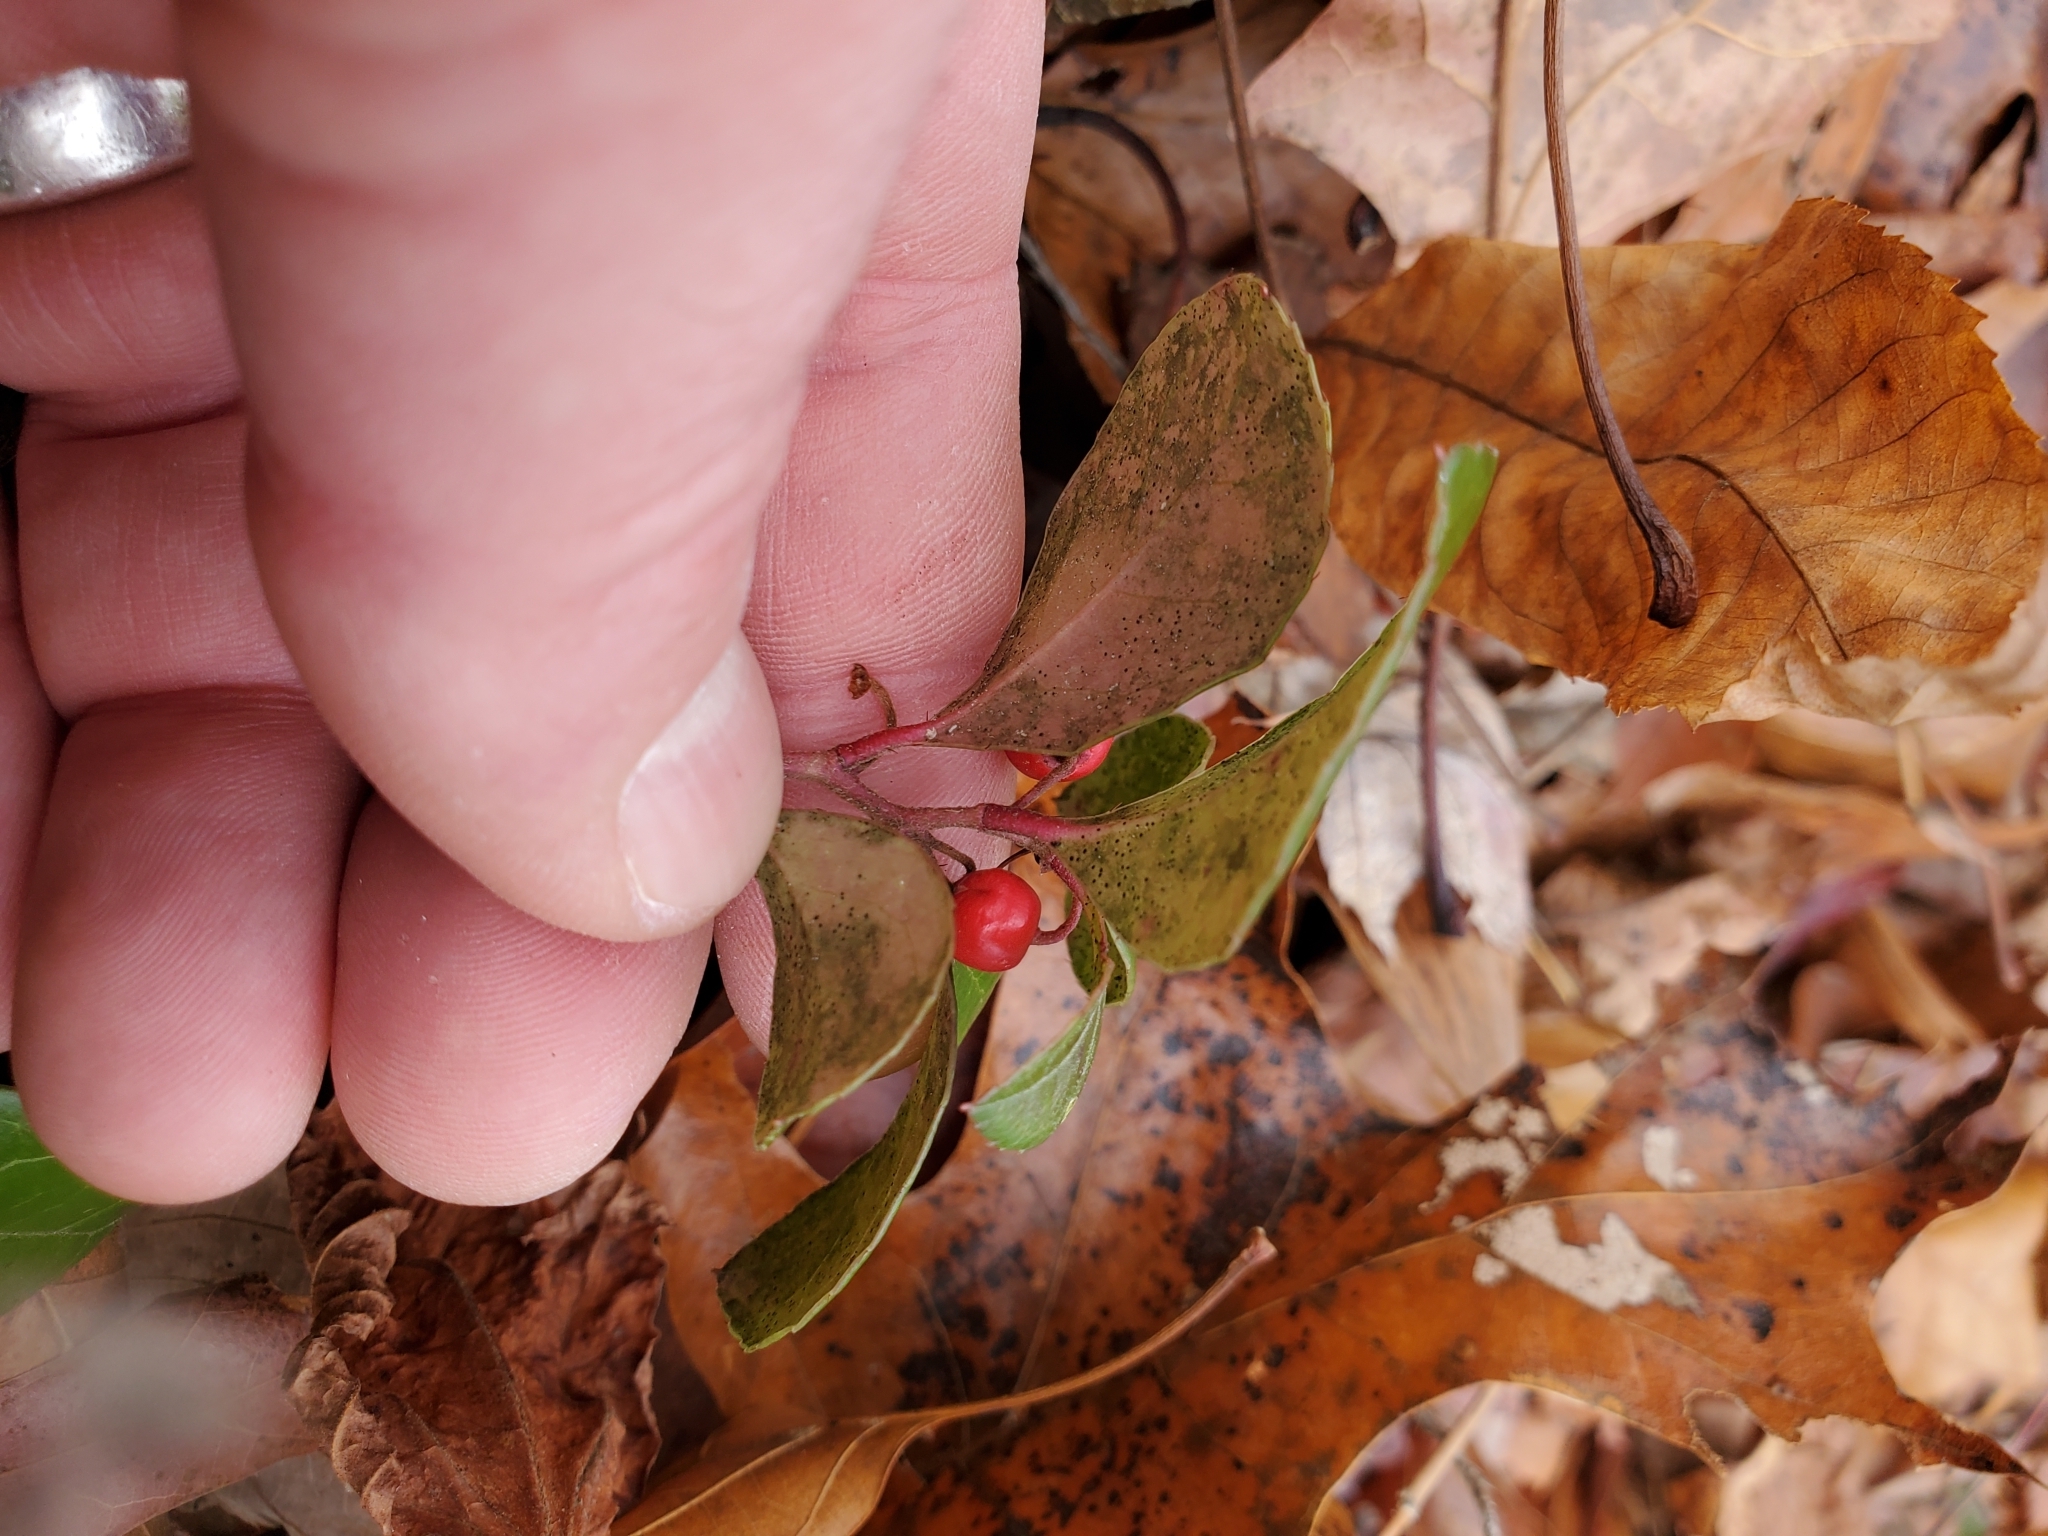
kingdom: Plantae
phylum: Tracheophyta
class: Magnoliopsida
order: Ericales
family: Ericaceae
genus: Gaultheria
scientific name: Gaultheria procumbens
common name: Checkerberry
